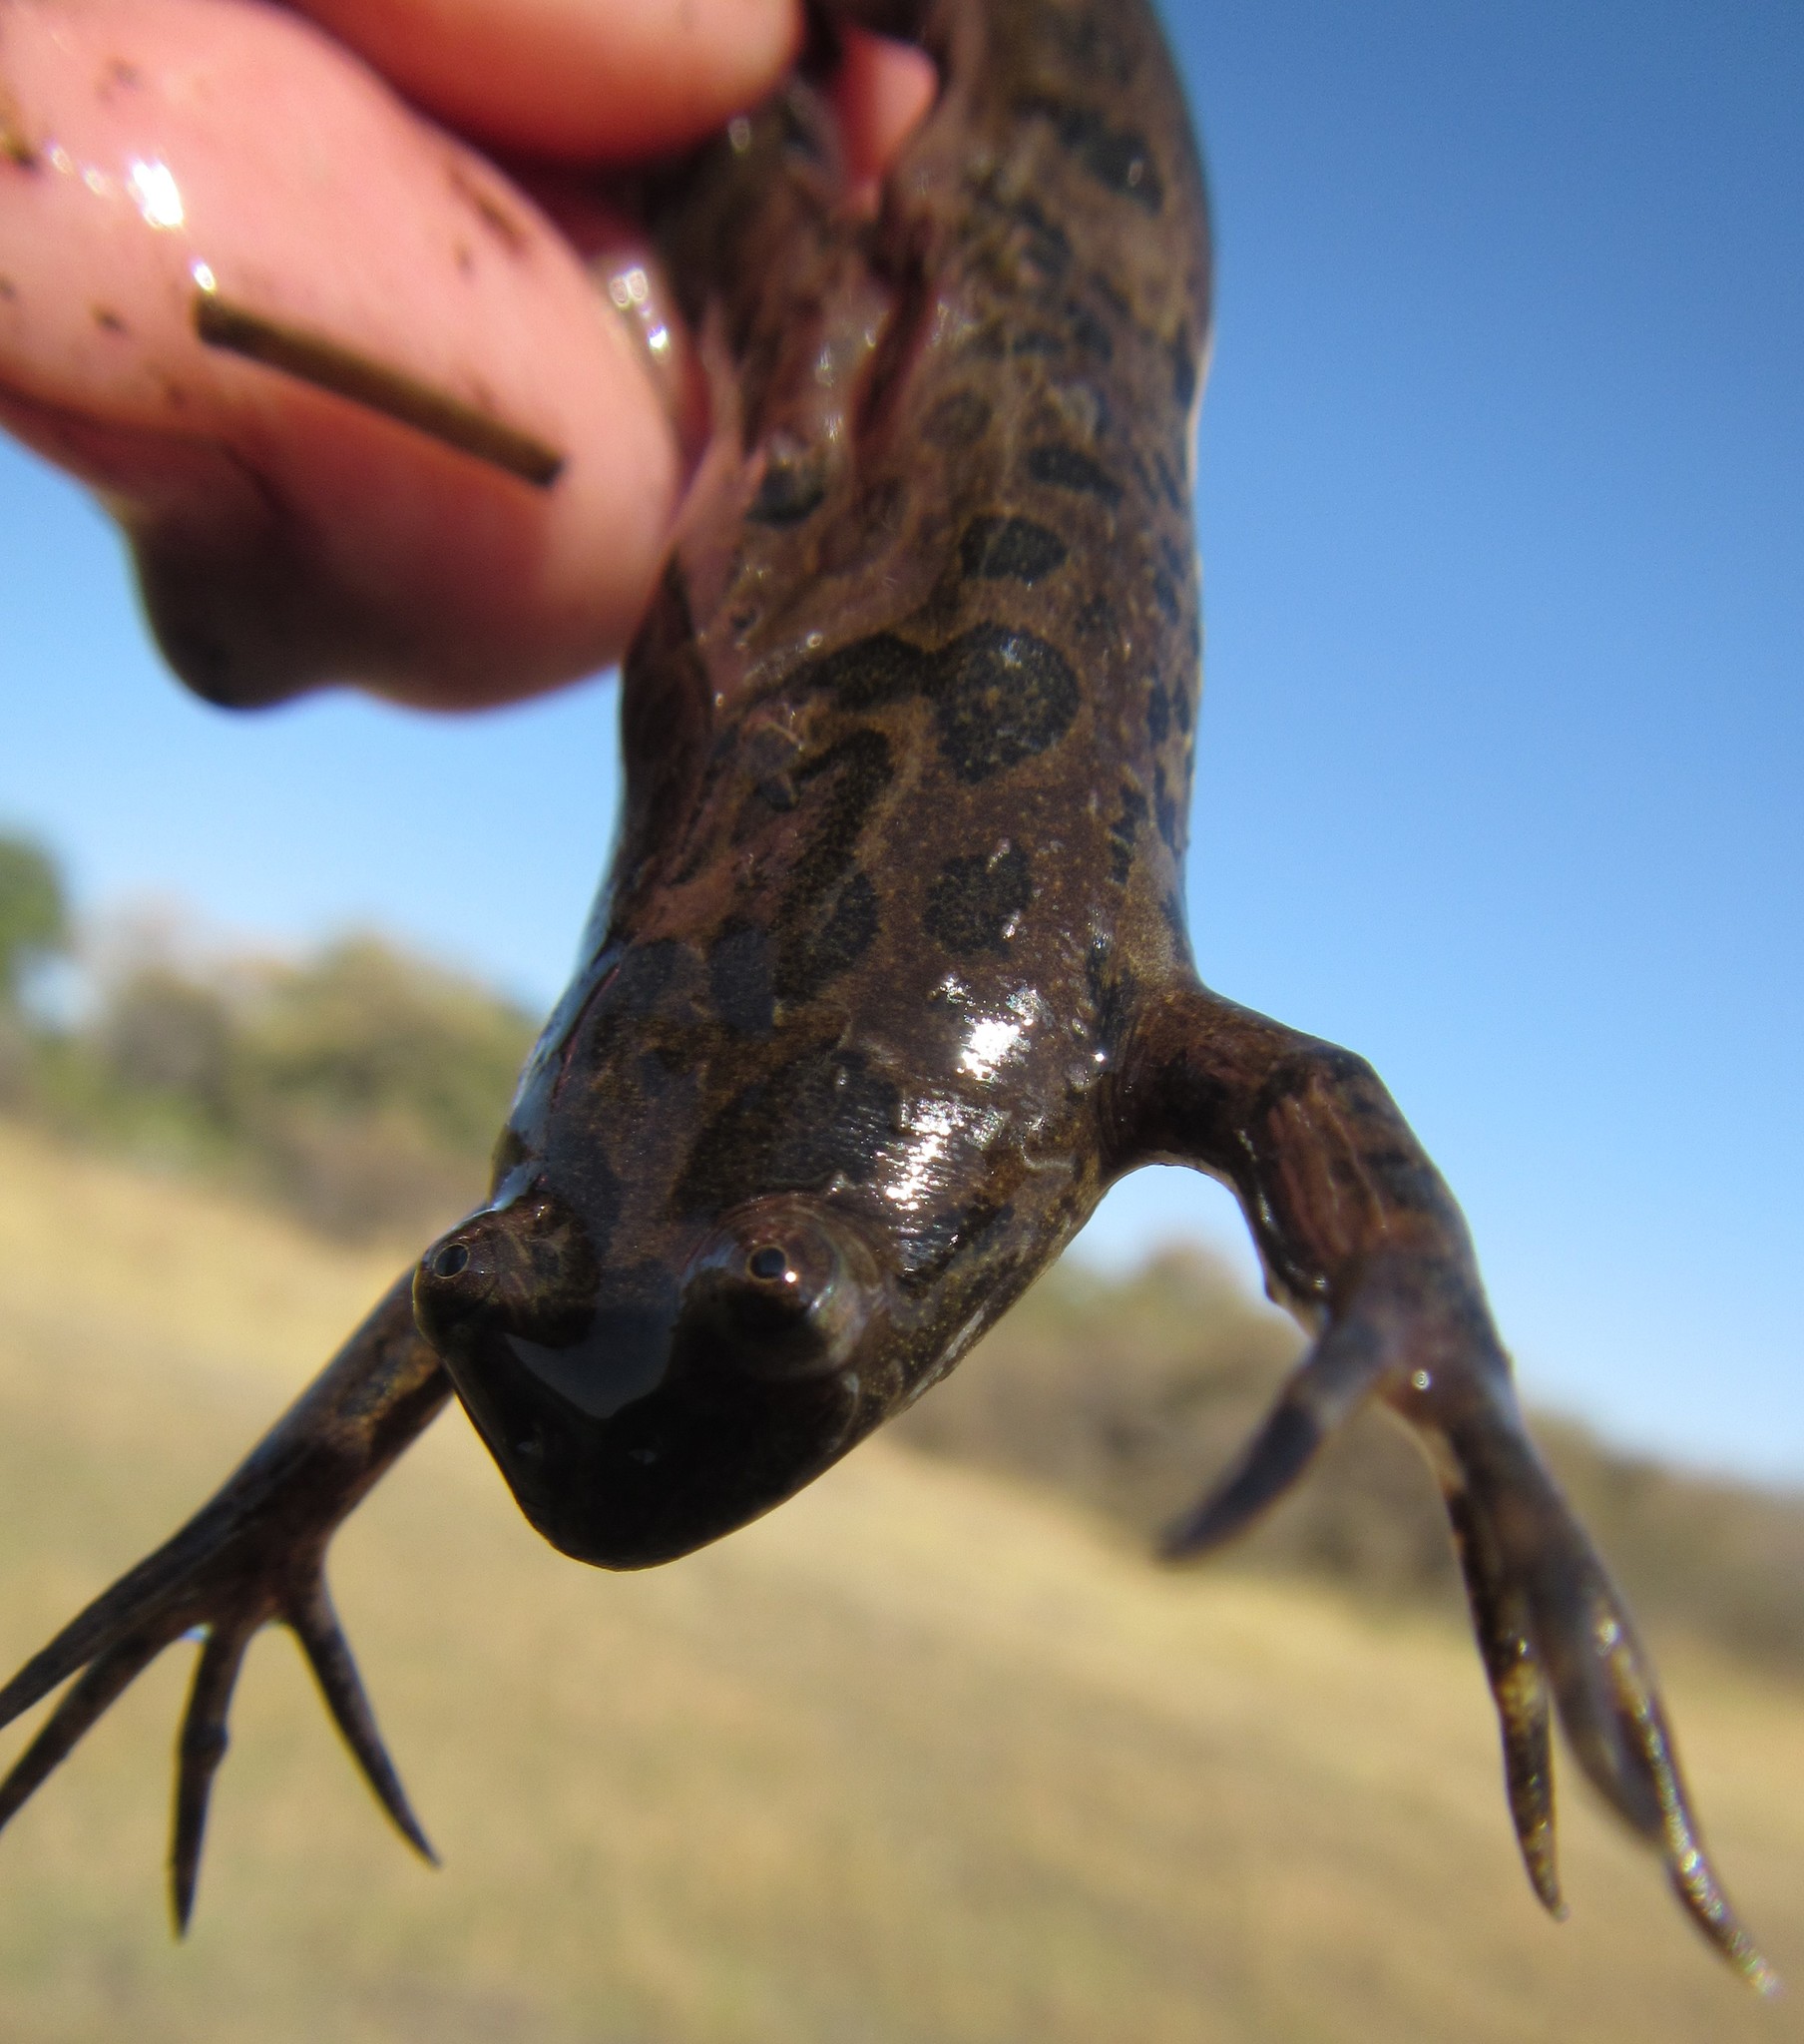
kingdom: Animalia
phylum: Chordata
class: Amphibia
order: Anura
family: Pipidae
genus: Xenopus
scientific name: Xenopus muelleri
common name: Muller's clawed frog
